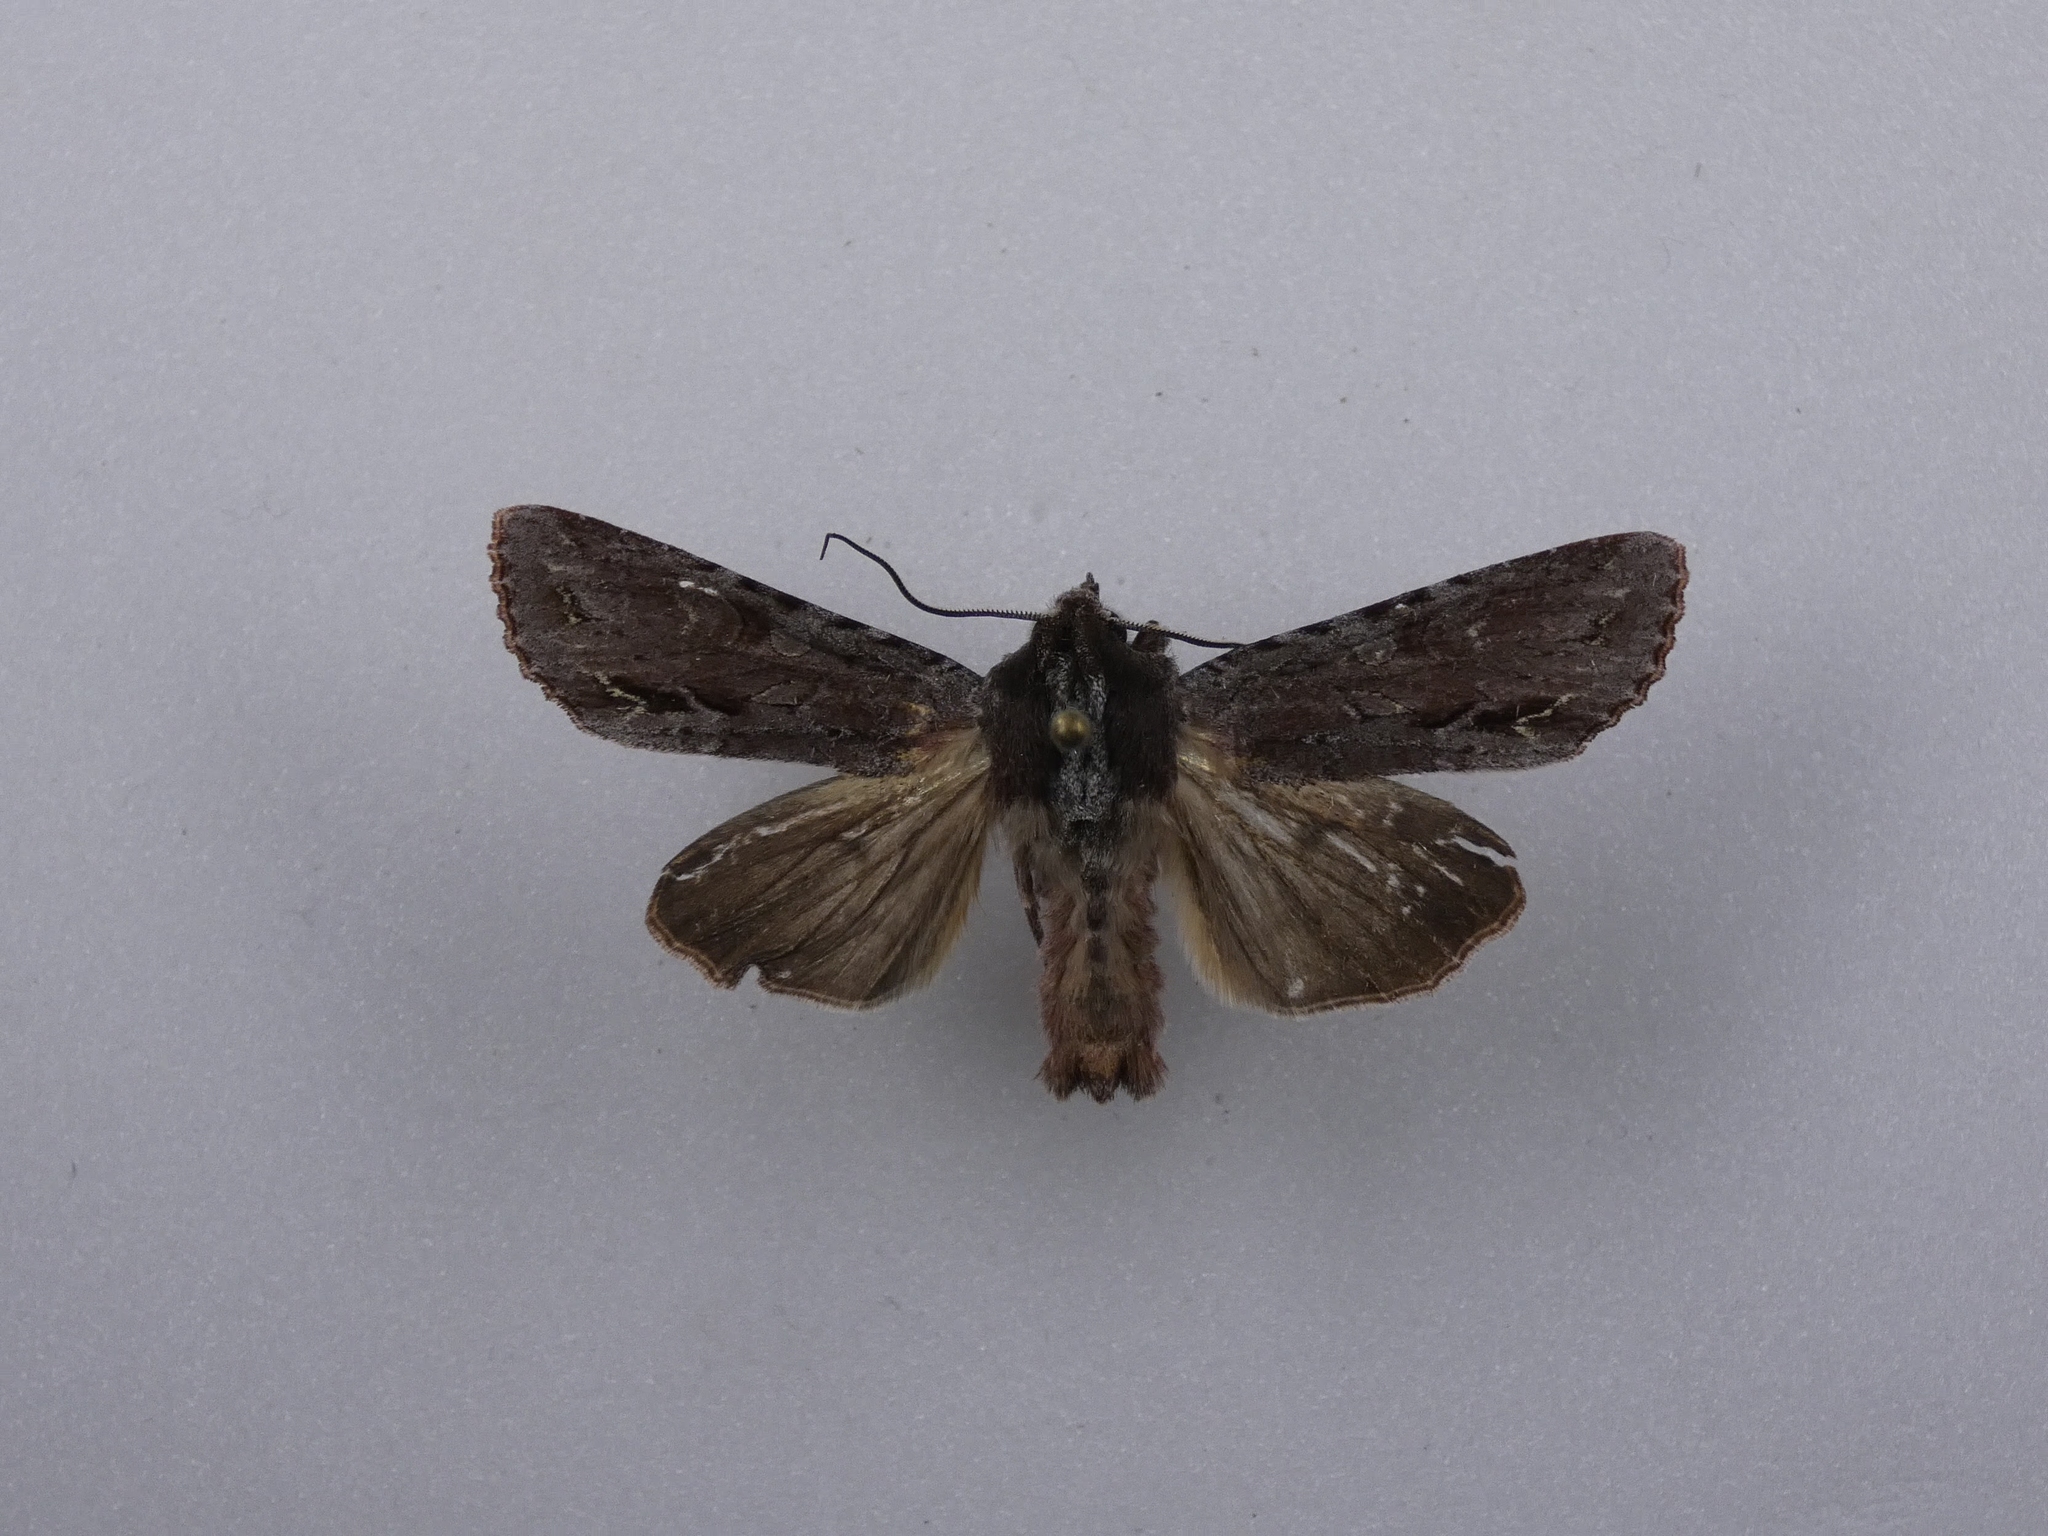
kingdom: Animalia
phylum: Arthropoda
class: Insecta
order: Lepidoptera
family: Noctuidae
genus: Ichneutica
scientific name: Ichneutica
